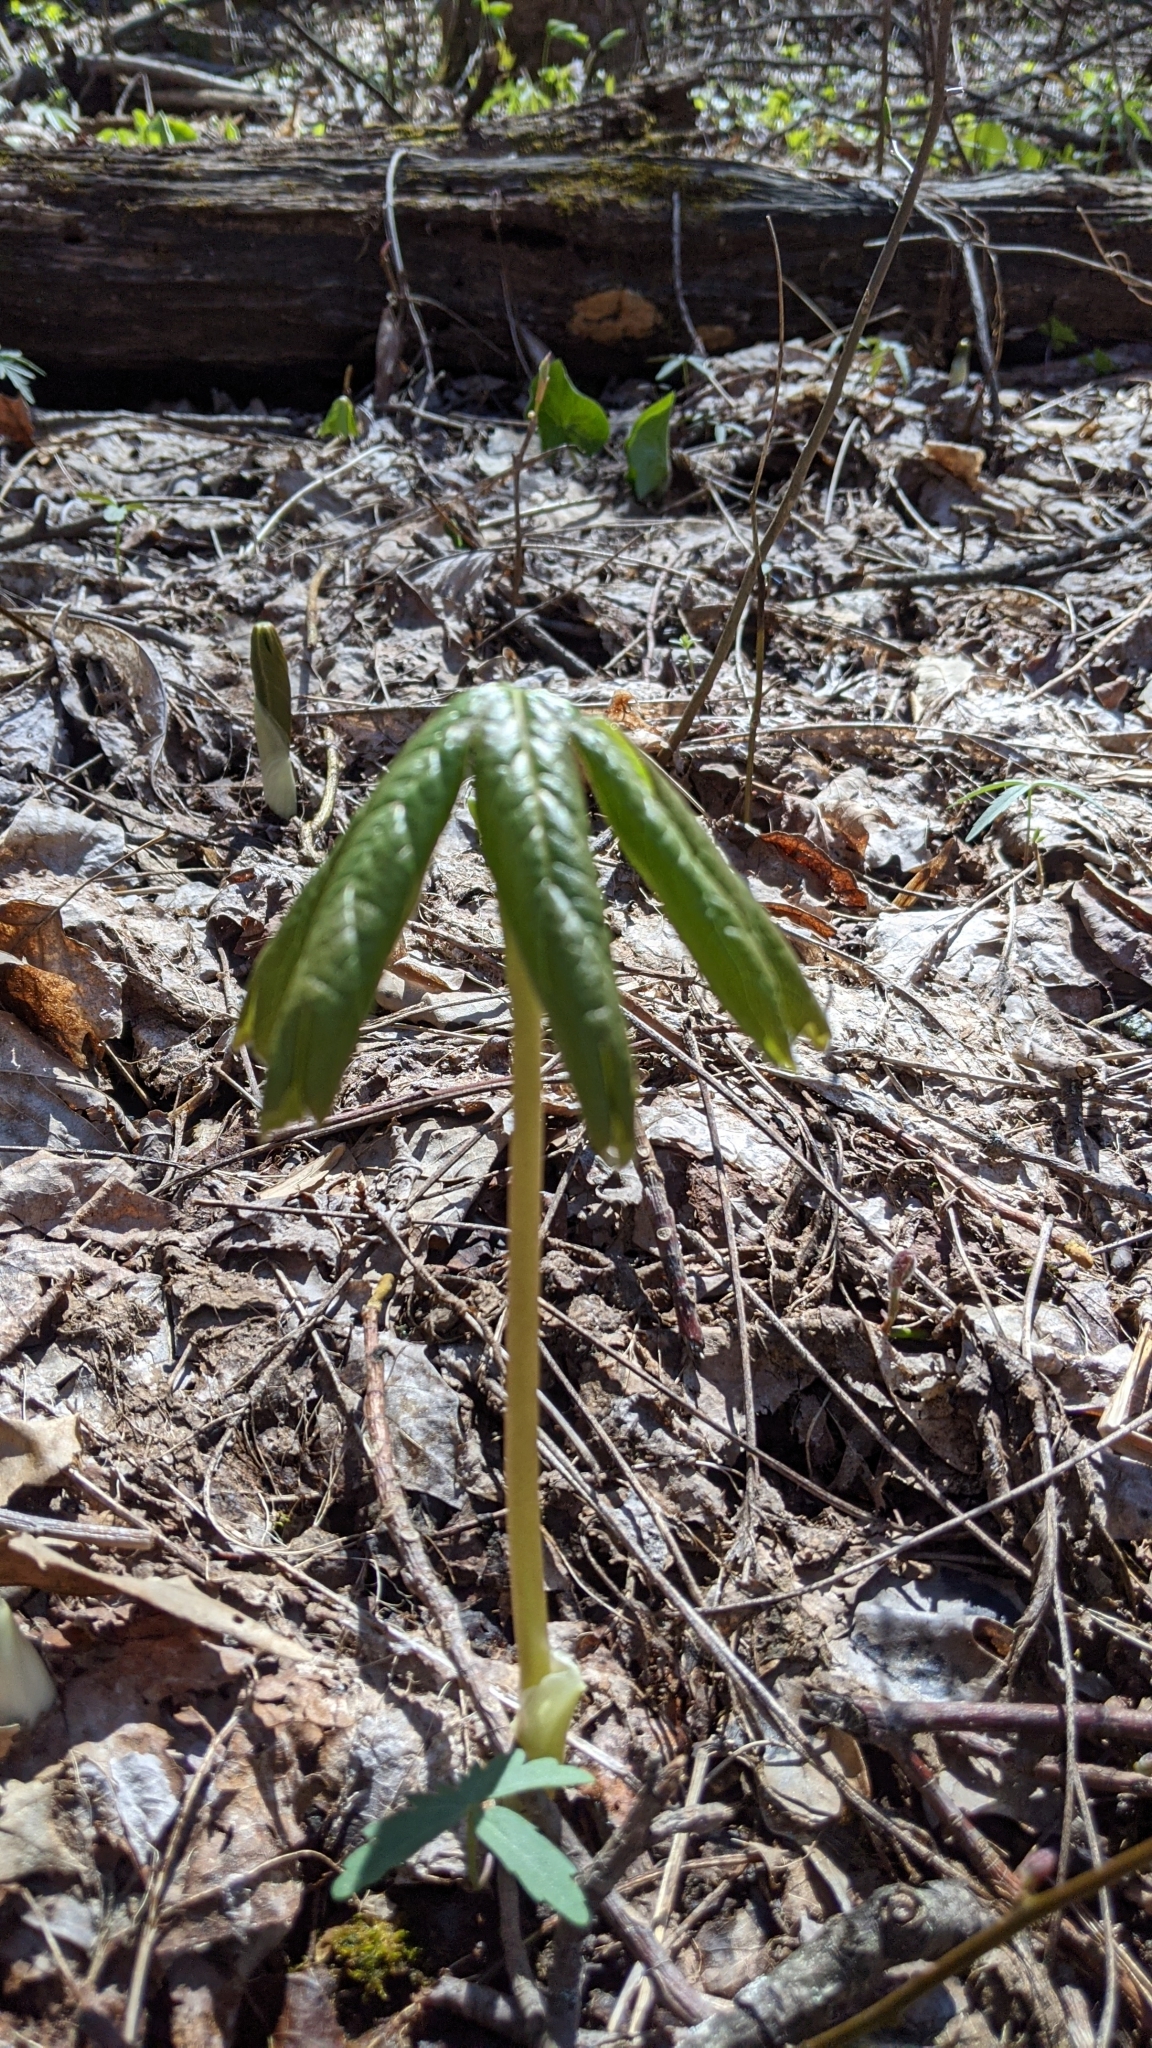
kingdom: Plantae
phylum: Tracheophyta
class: Magnoliopsida
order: Ranunculales
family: Berberidaceae
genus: Podophyllum
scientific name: Podophyllum peltatum
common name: Wild mandrake
